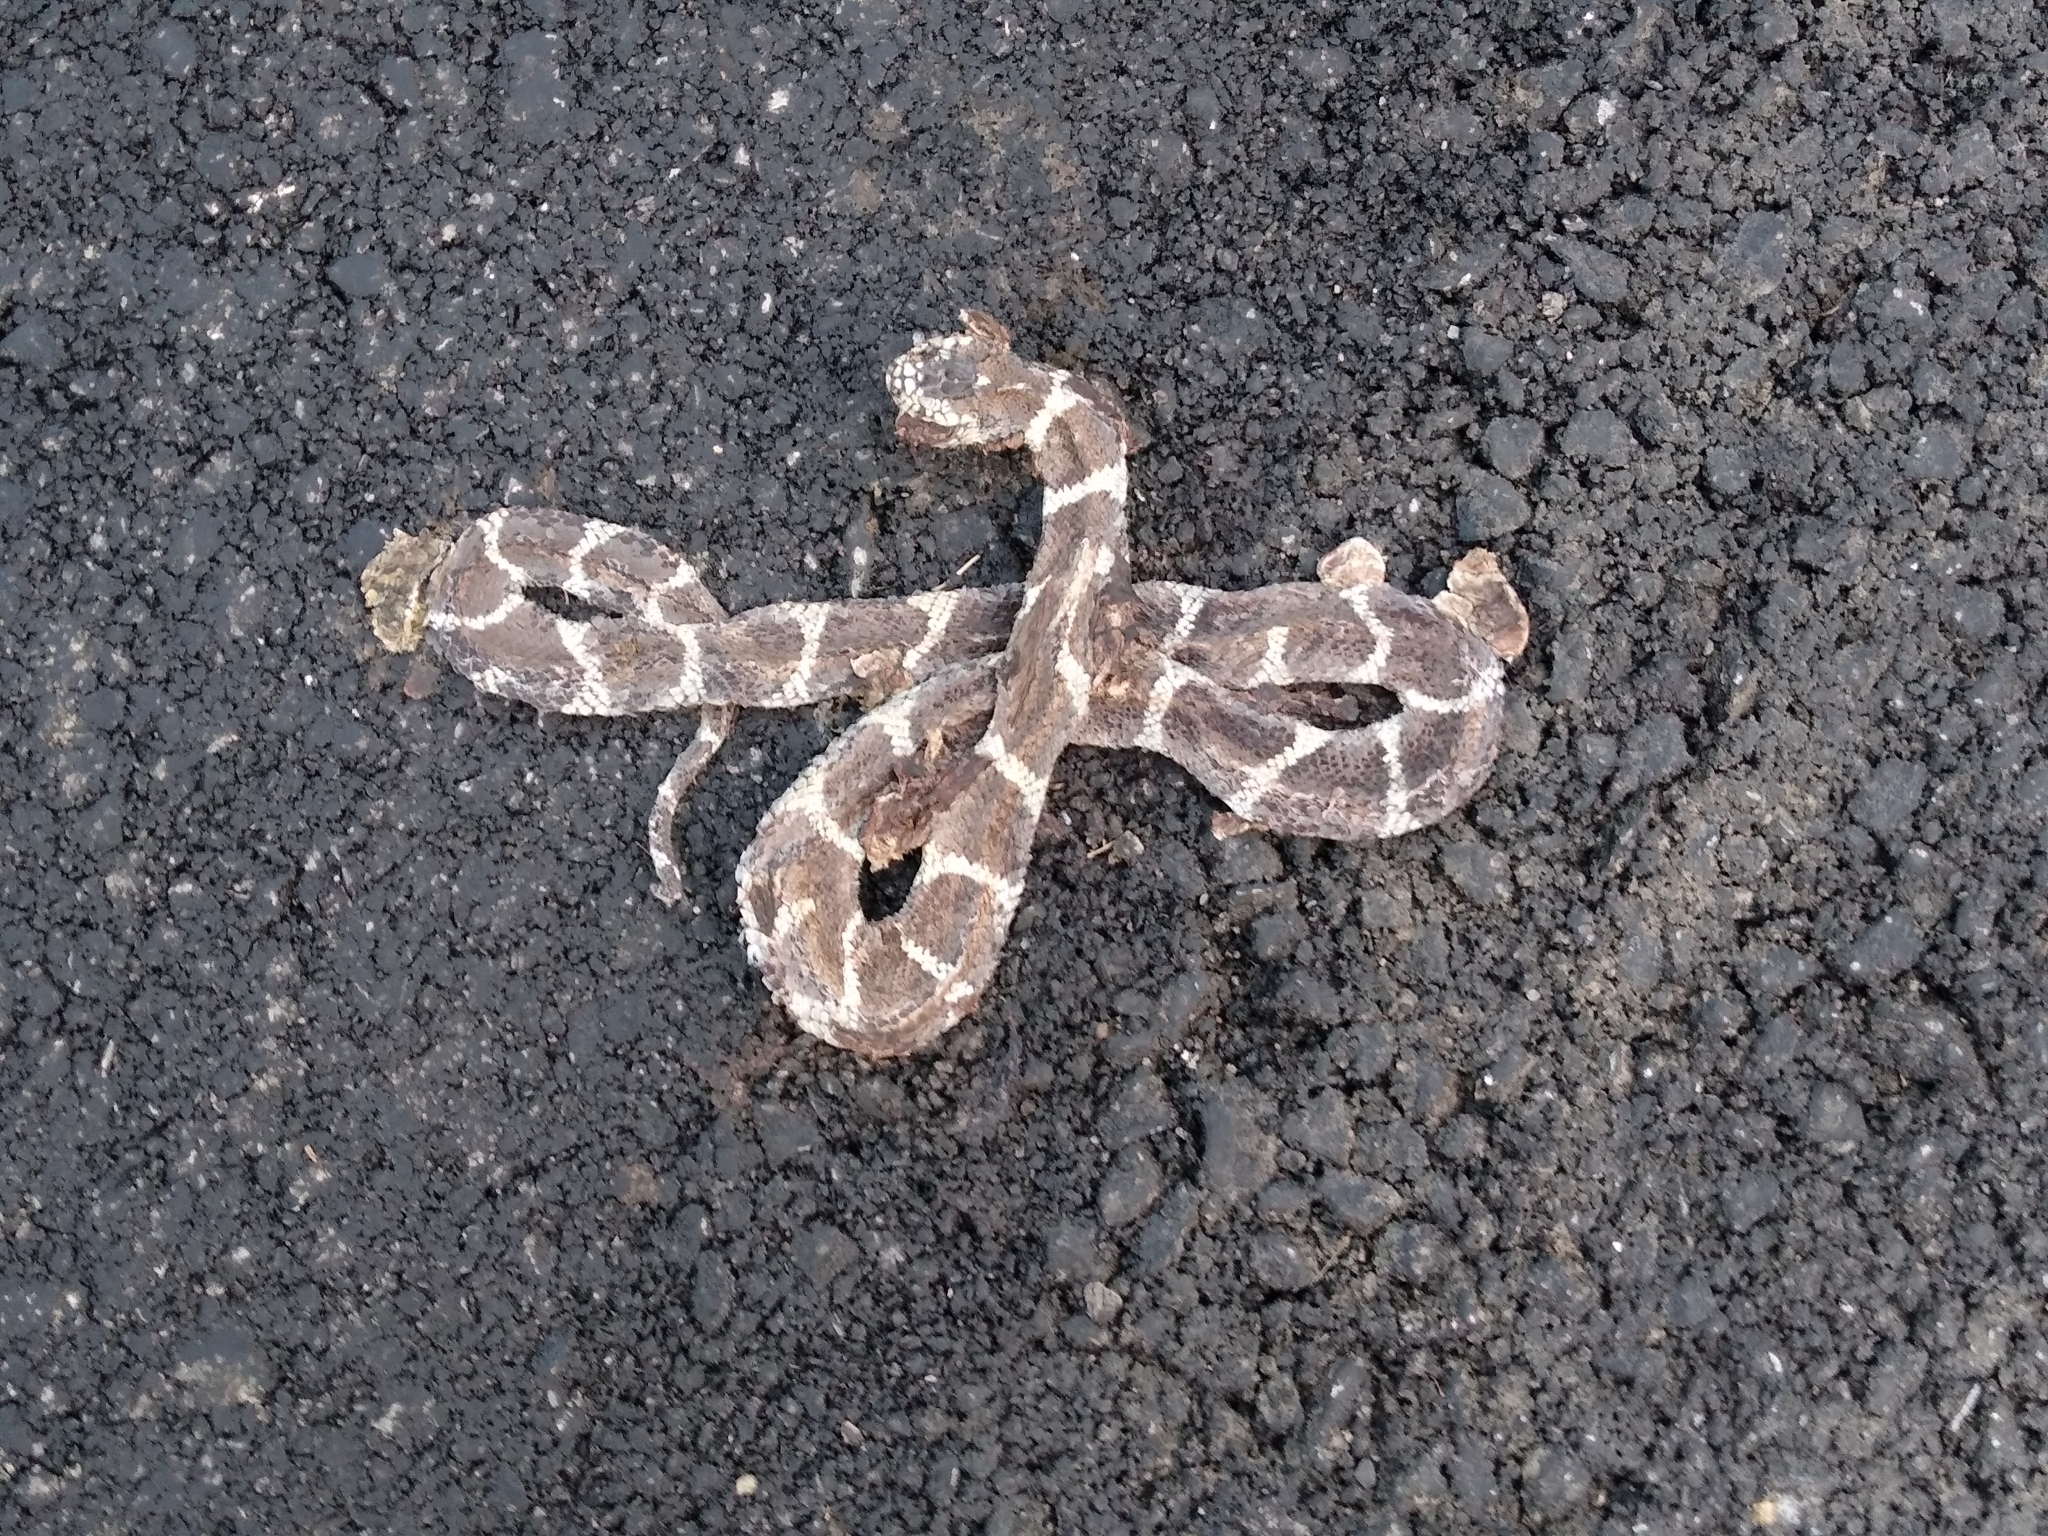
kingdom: Animalia
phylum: Chordata
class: Squamata
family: Colubridae
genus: Lampropeltis
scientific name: Lampropeltis californiae
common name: California kingsnake
